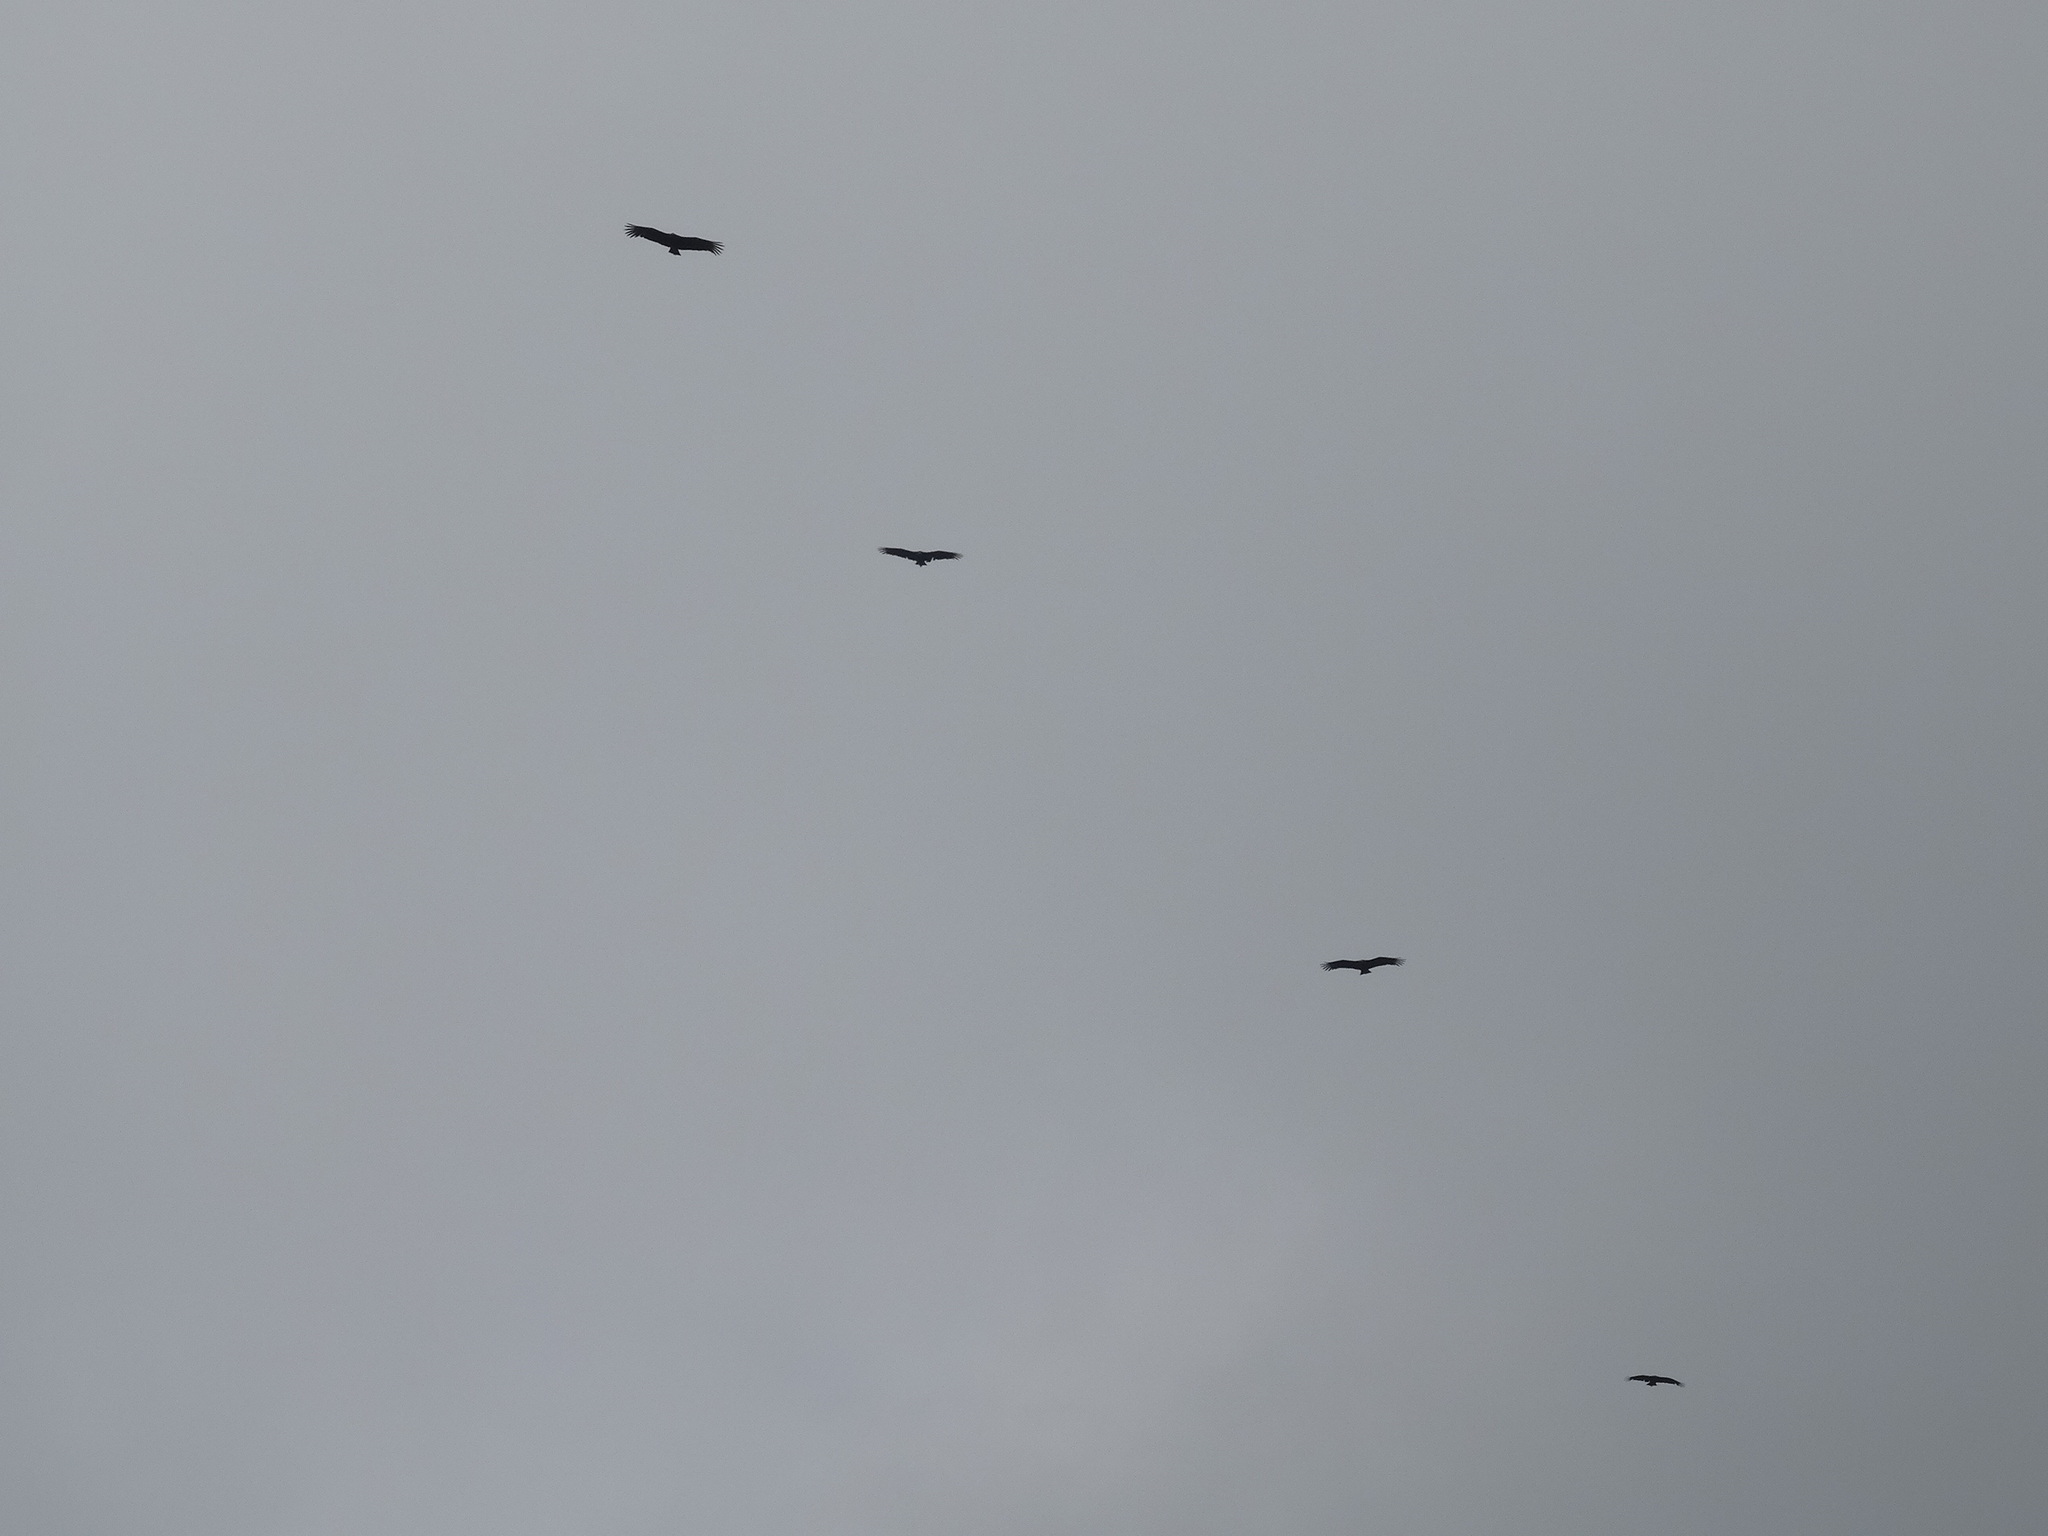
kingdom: Animalia
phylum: Chordata
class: Aves
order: Accipitriformes
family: Cathartidae
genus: Coragyps
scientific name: Coragyps atratus
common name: Black vulture
